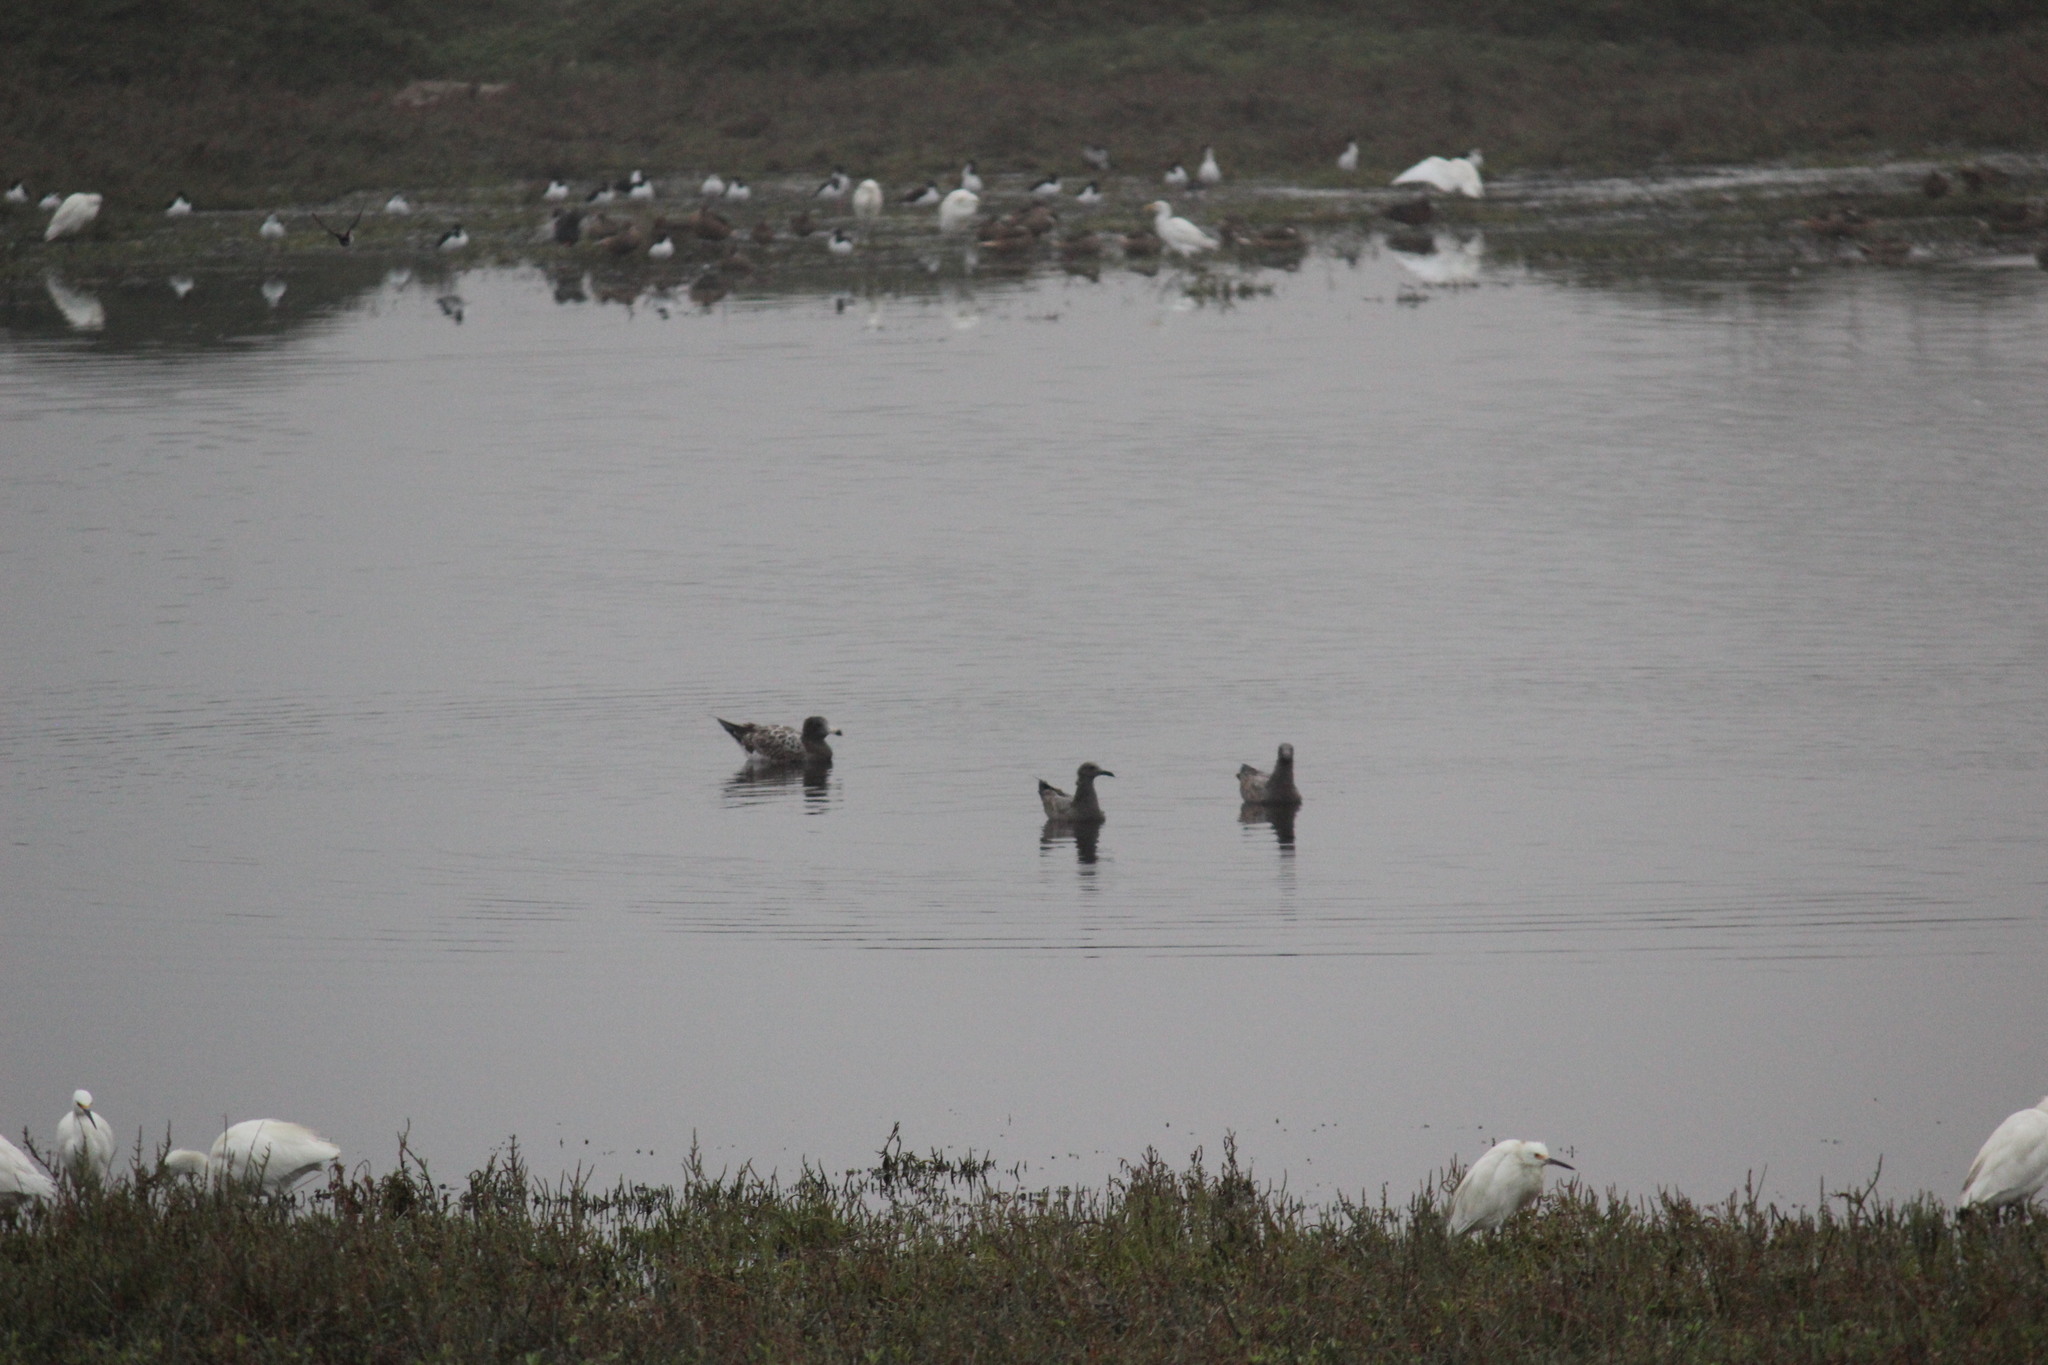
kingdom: Animalia
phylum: Chordata
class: Aves
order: Charadriiformes
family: Laridae
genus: Leucophaeus
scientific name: Leucophaeus modestus
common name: Gray gull
